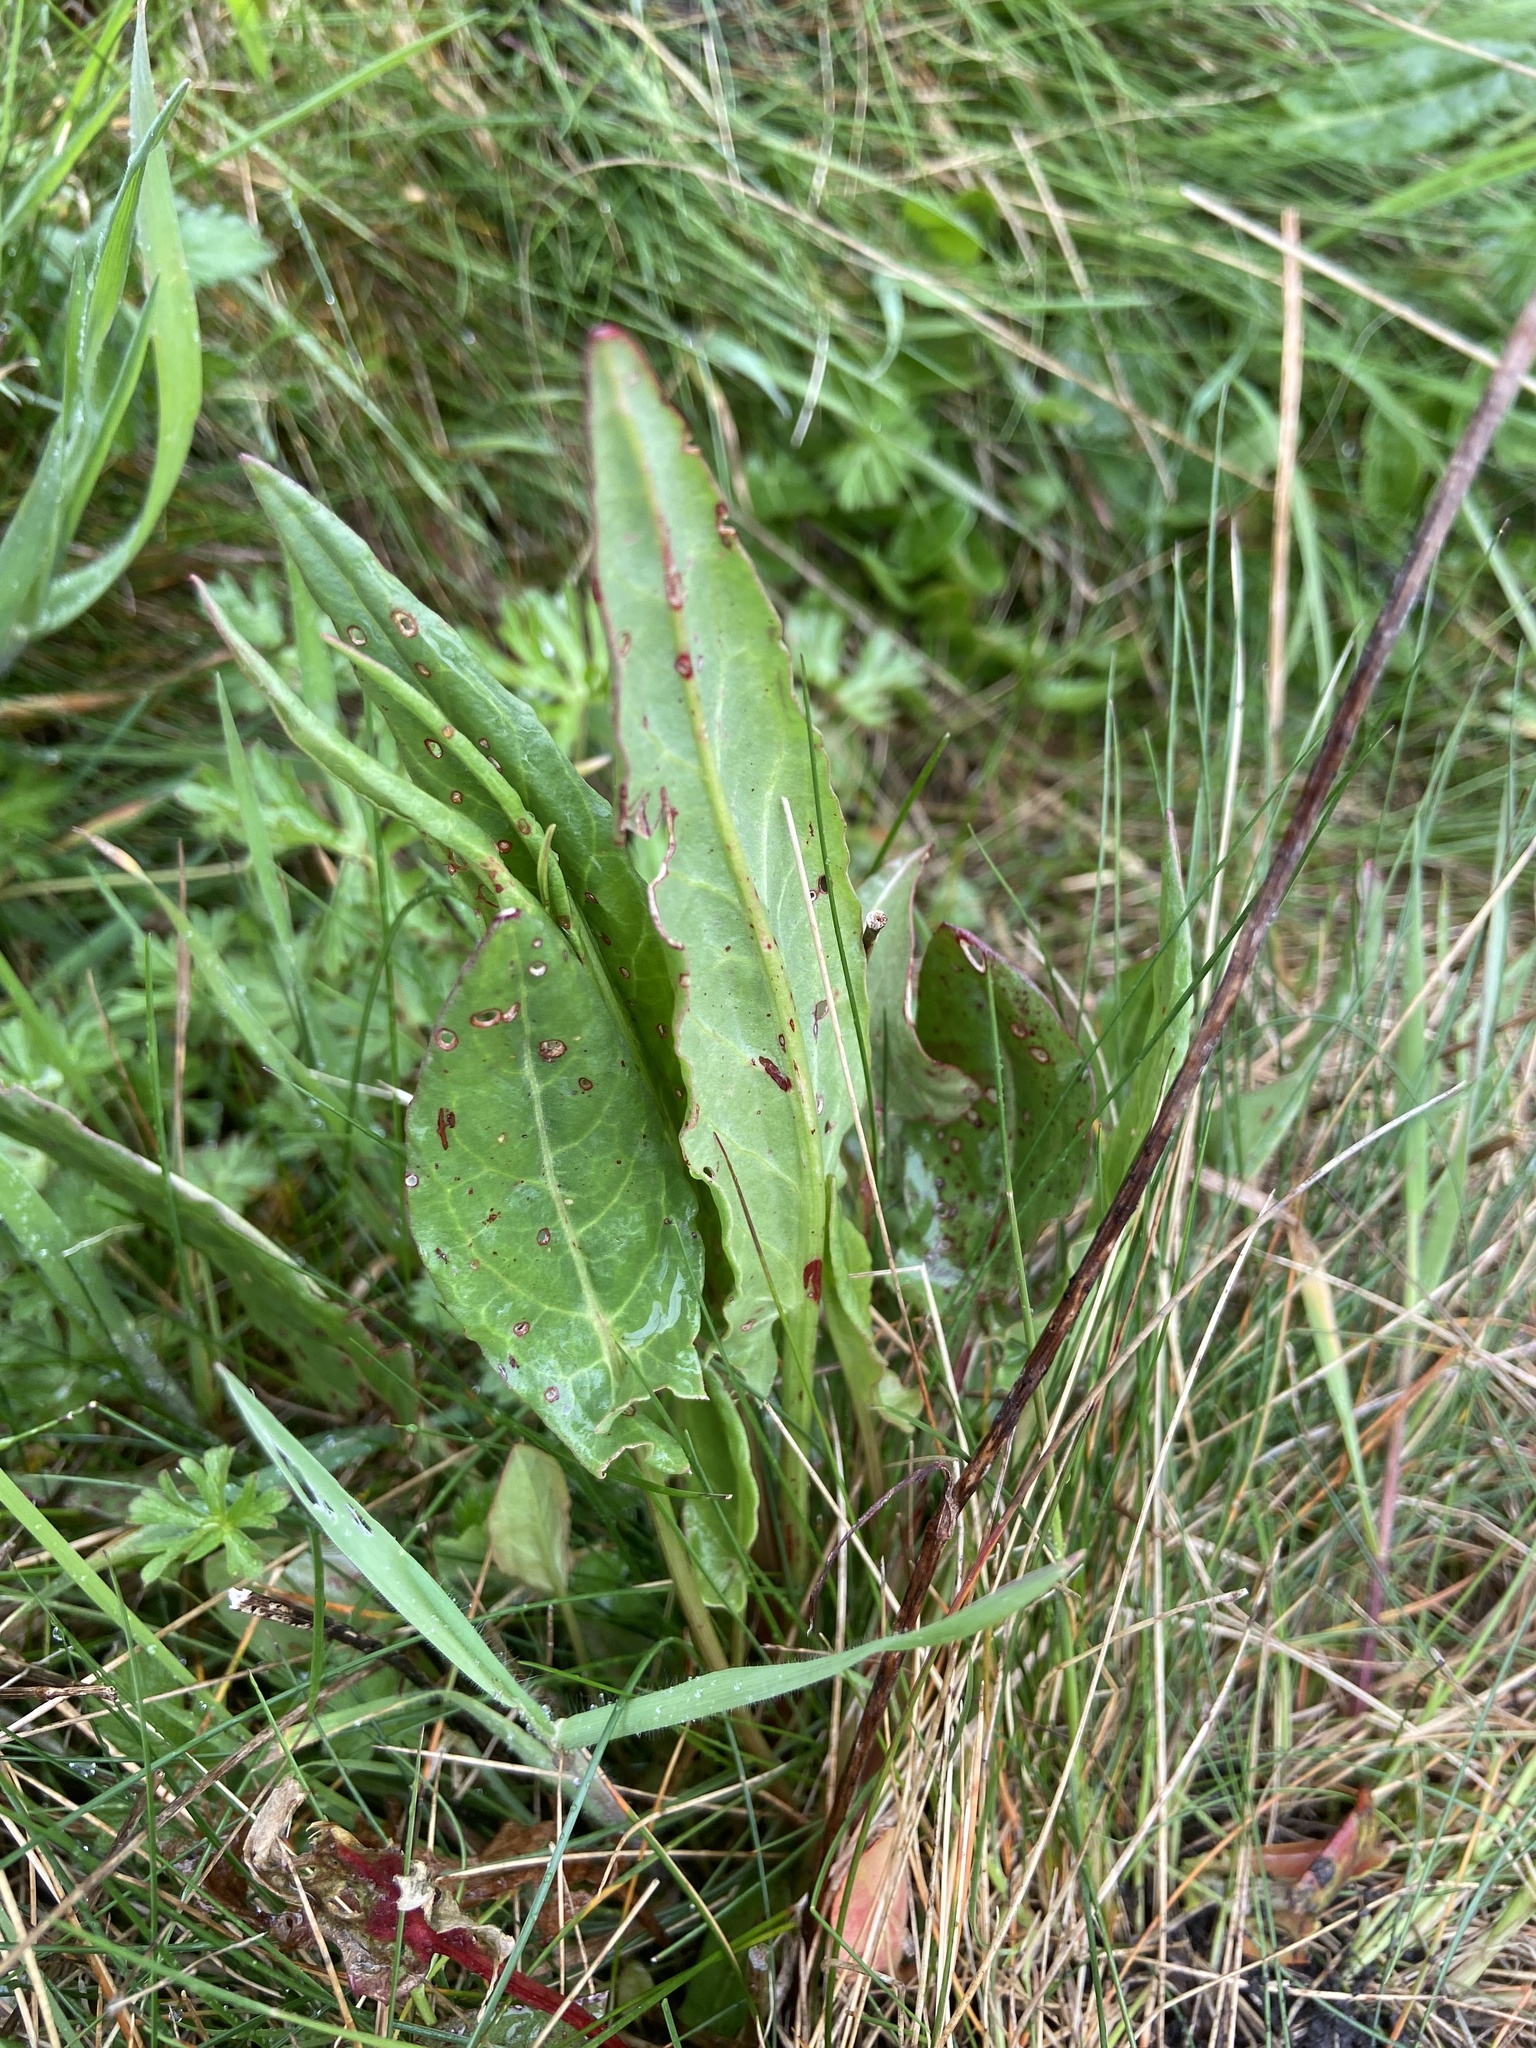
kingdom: Plantae
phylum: Tracheophyta
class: Magnoliopsida
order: Caryophyllales
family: Polygonaceae
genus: Rumex
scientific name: Rumex acetosa
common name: Garden sorrel
